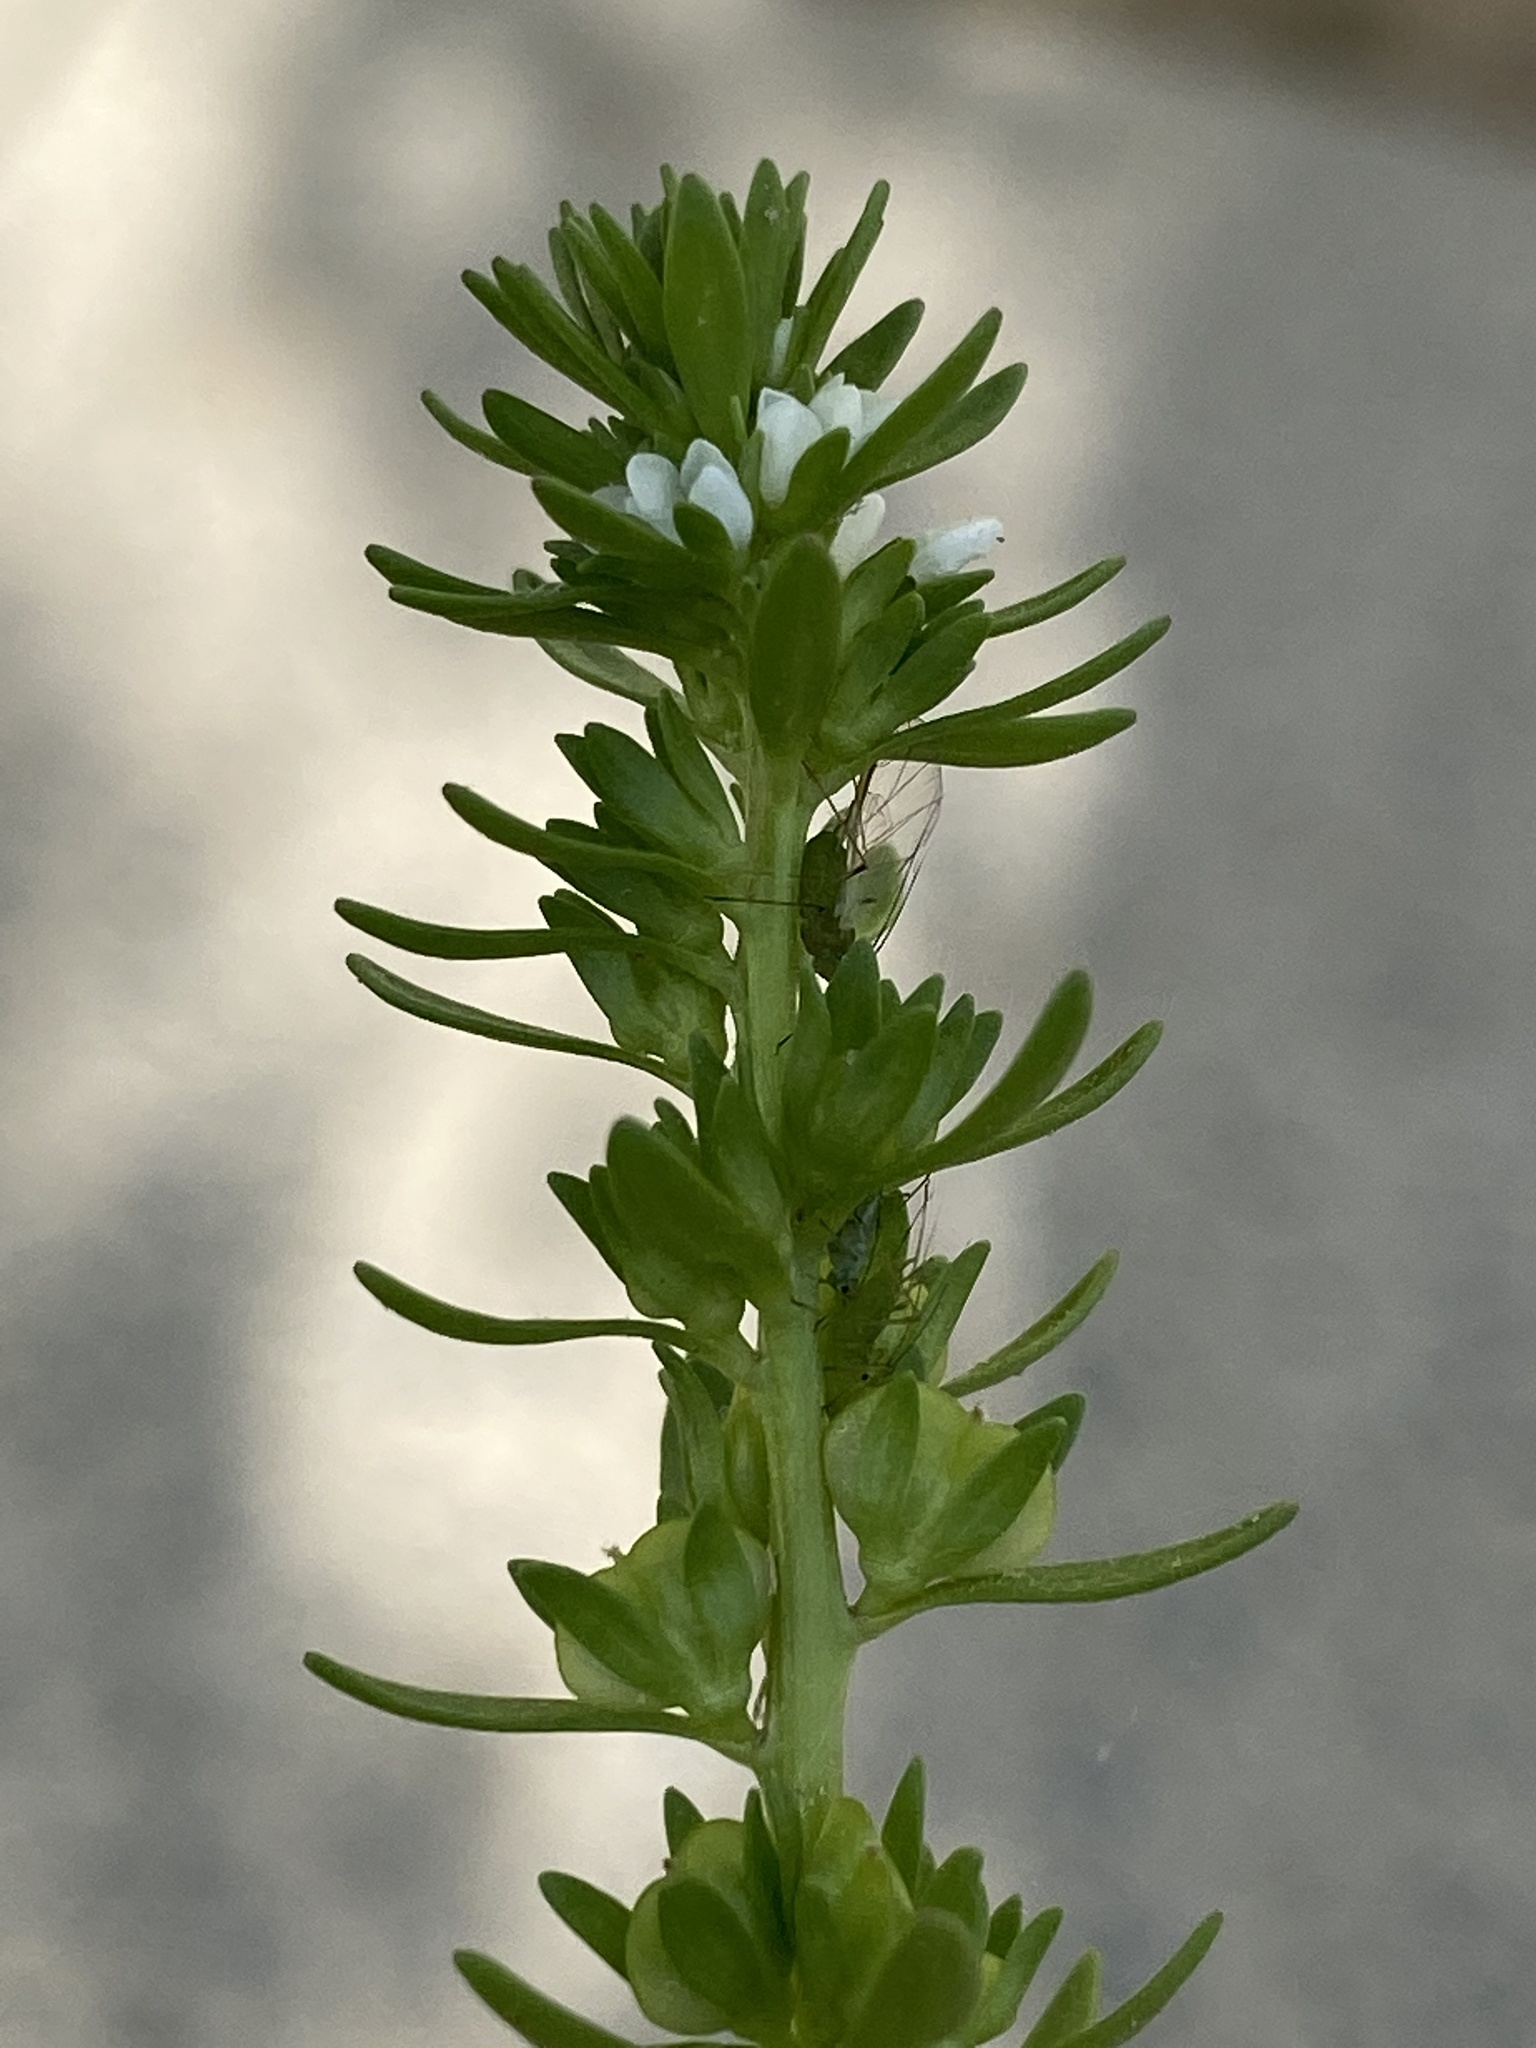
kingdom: Plantae
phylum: Tracheophyta
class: Magnoliopsida
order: Lamiales
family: Plantaginaceae
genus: Veronica
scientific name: Veronica peregrina
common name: Neckweed
